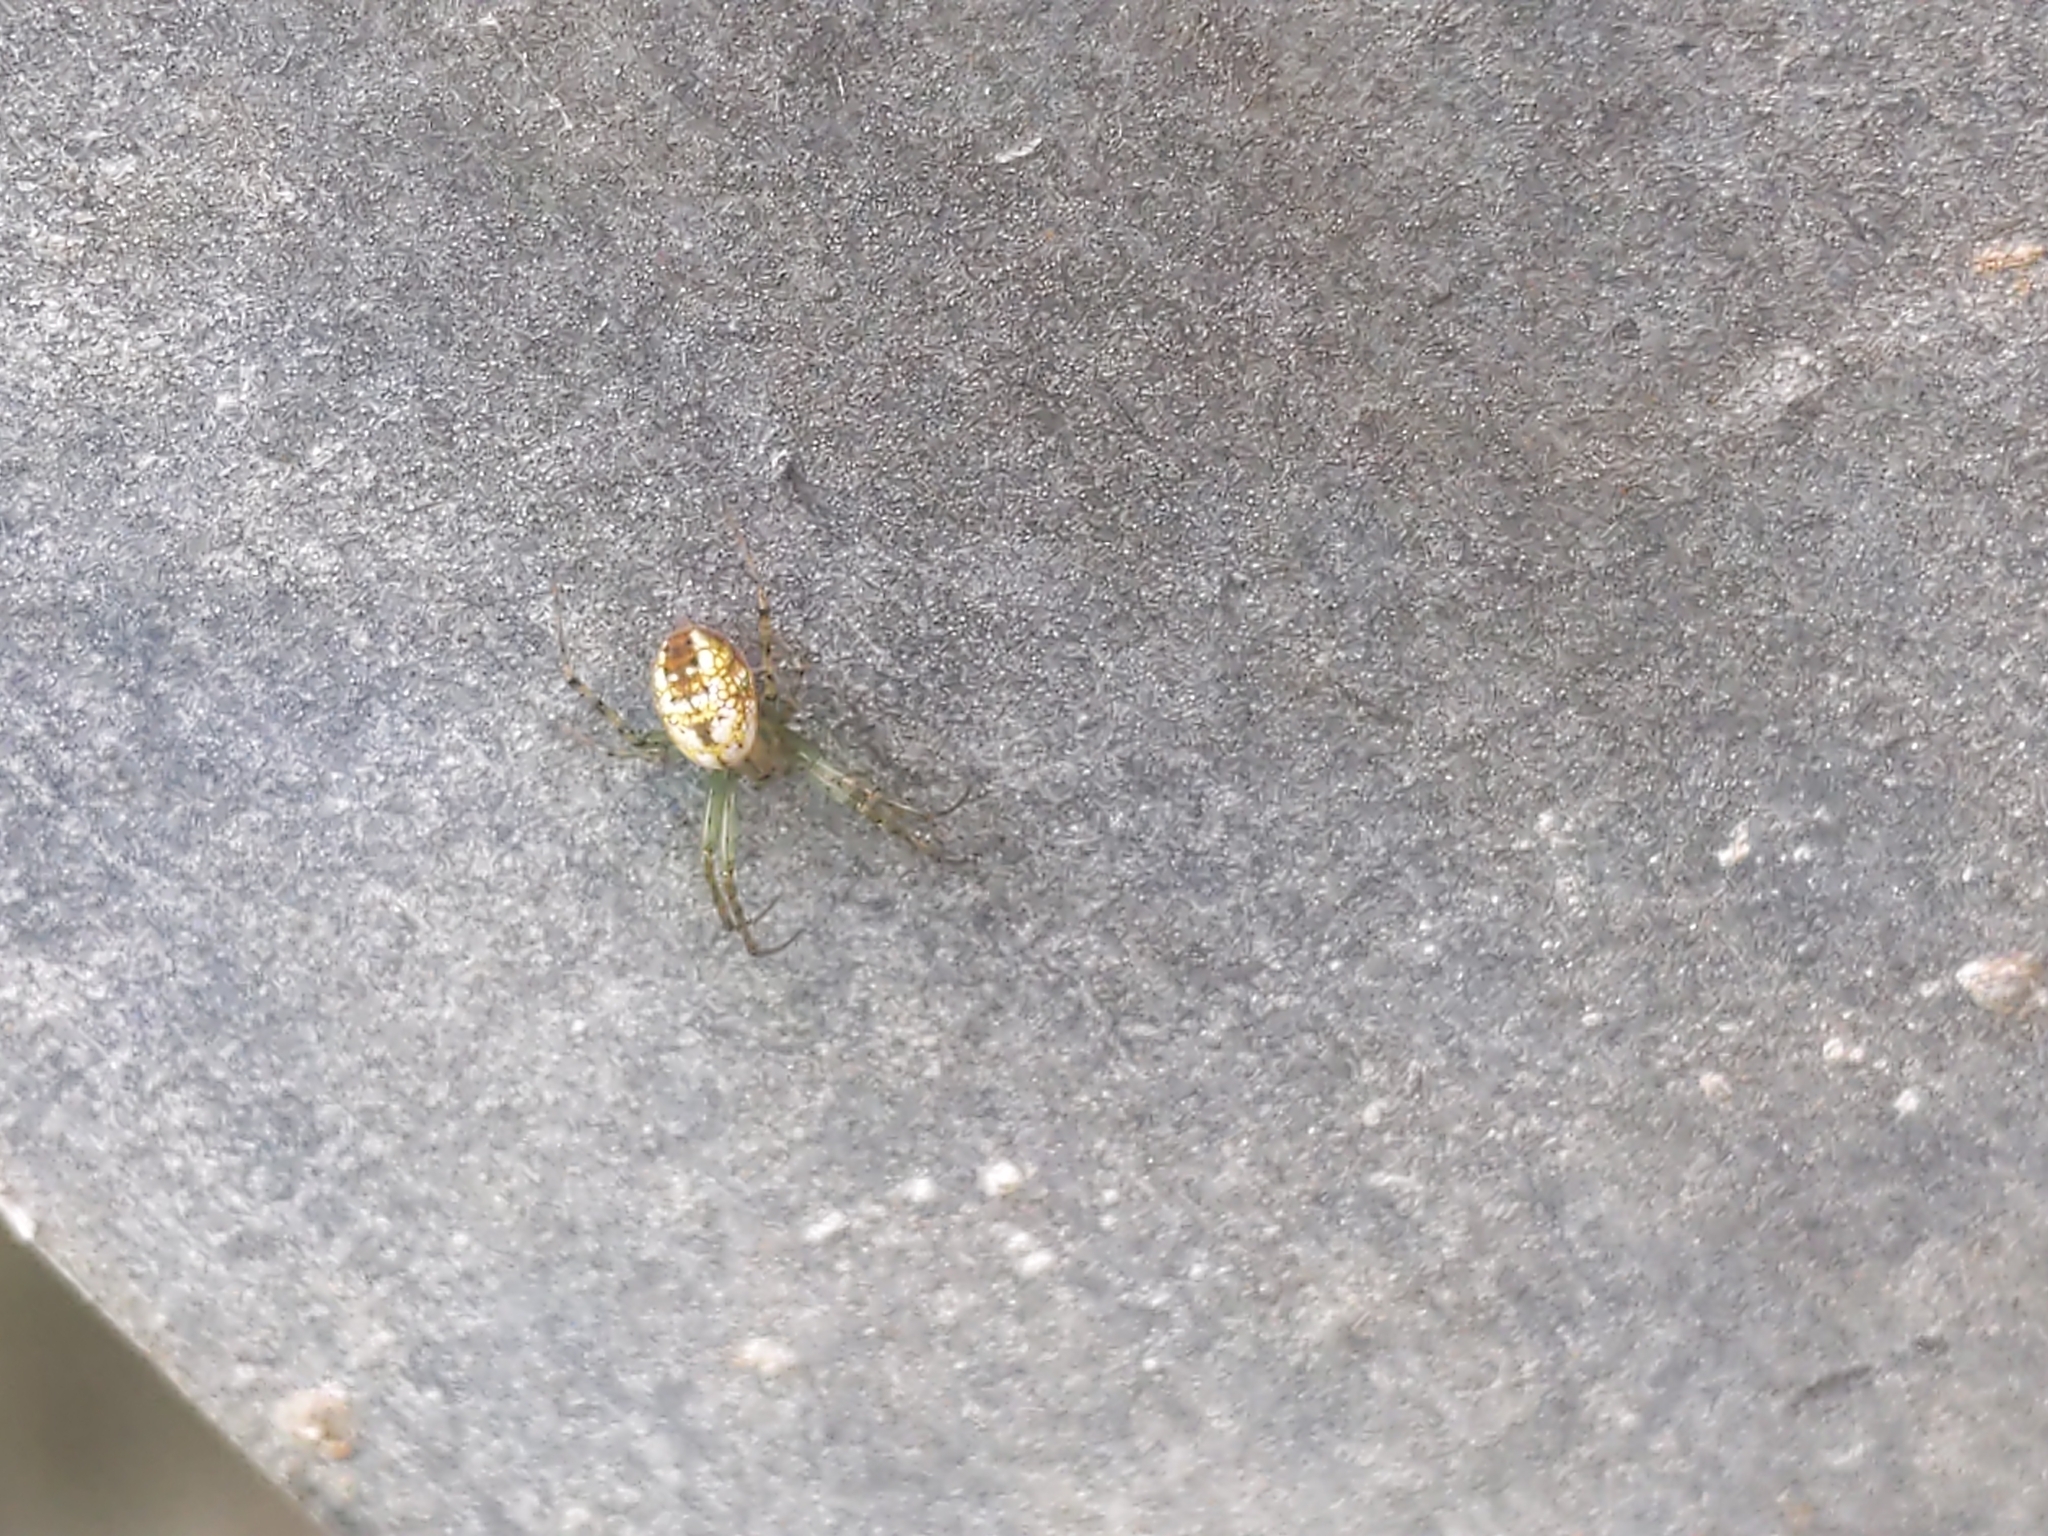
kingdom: Animalia
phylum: Arthropoda
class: Arachnida
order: Araneae
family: Araneidae
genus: Mangora
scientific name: Mangora spiculata
